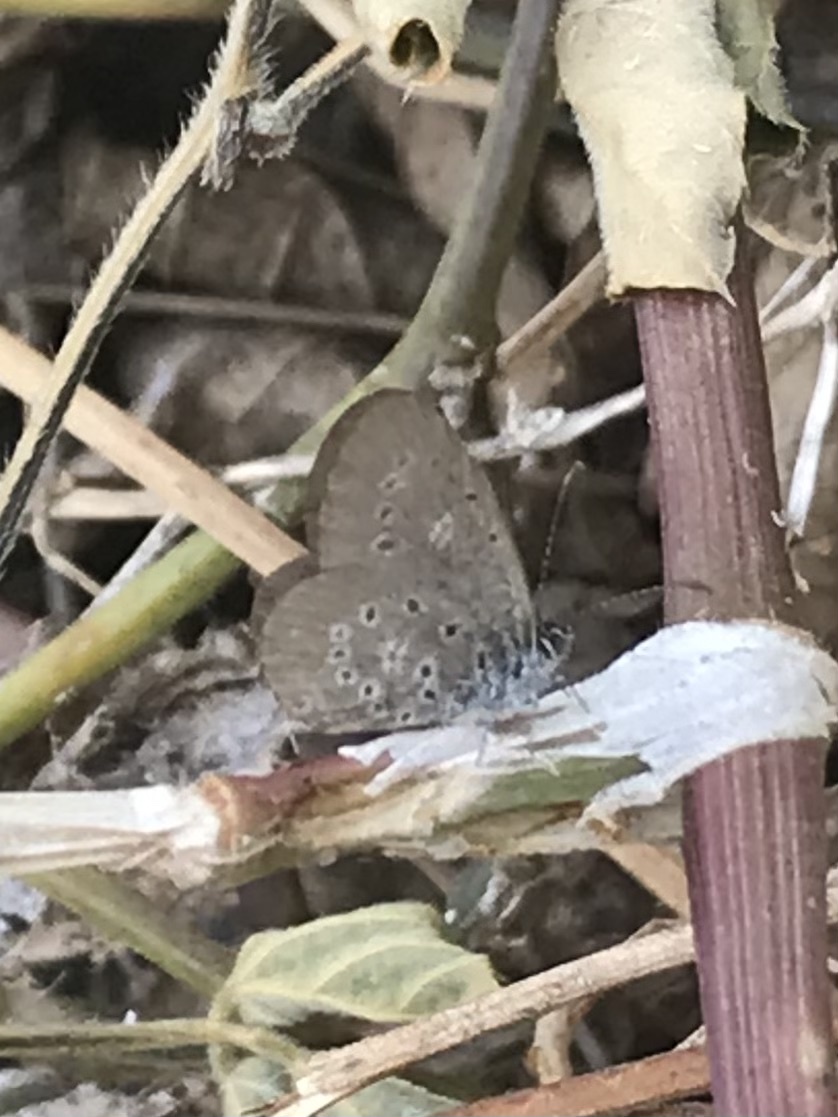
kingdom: Animalia
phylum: Arthropoda
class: Insecta
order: Lepidoptera
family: Lycaenidae
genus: Zizula
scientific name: Zizula hylax
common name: Gaika blue
